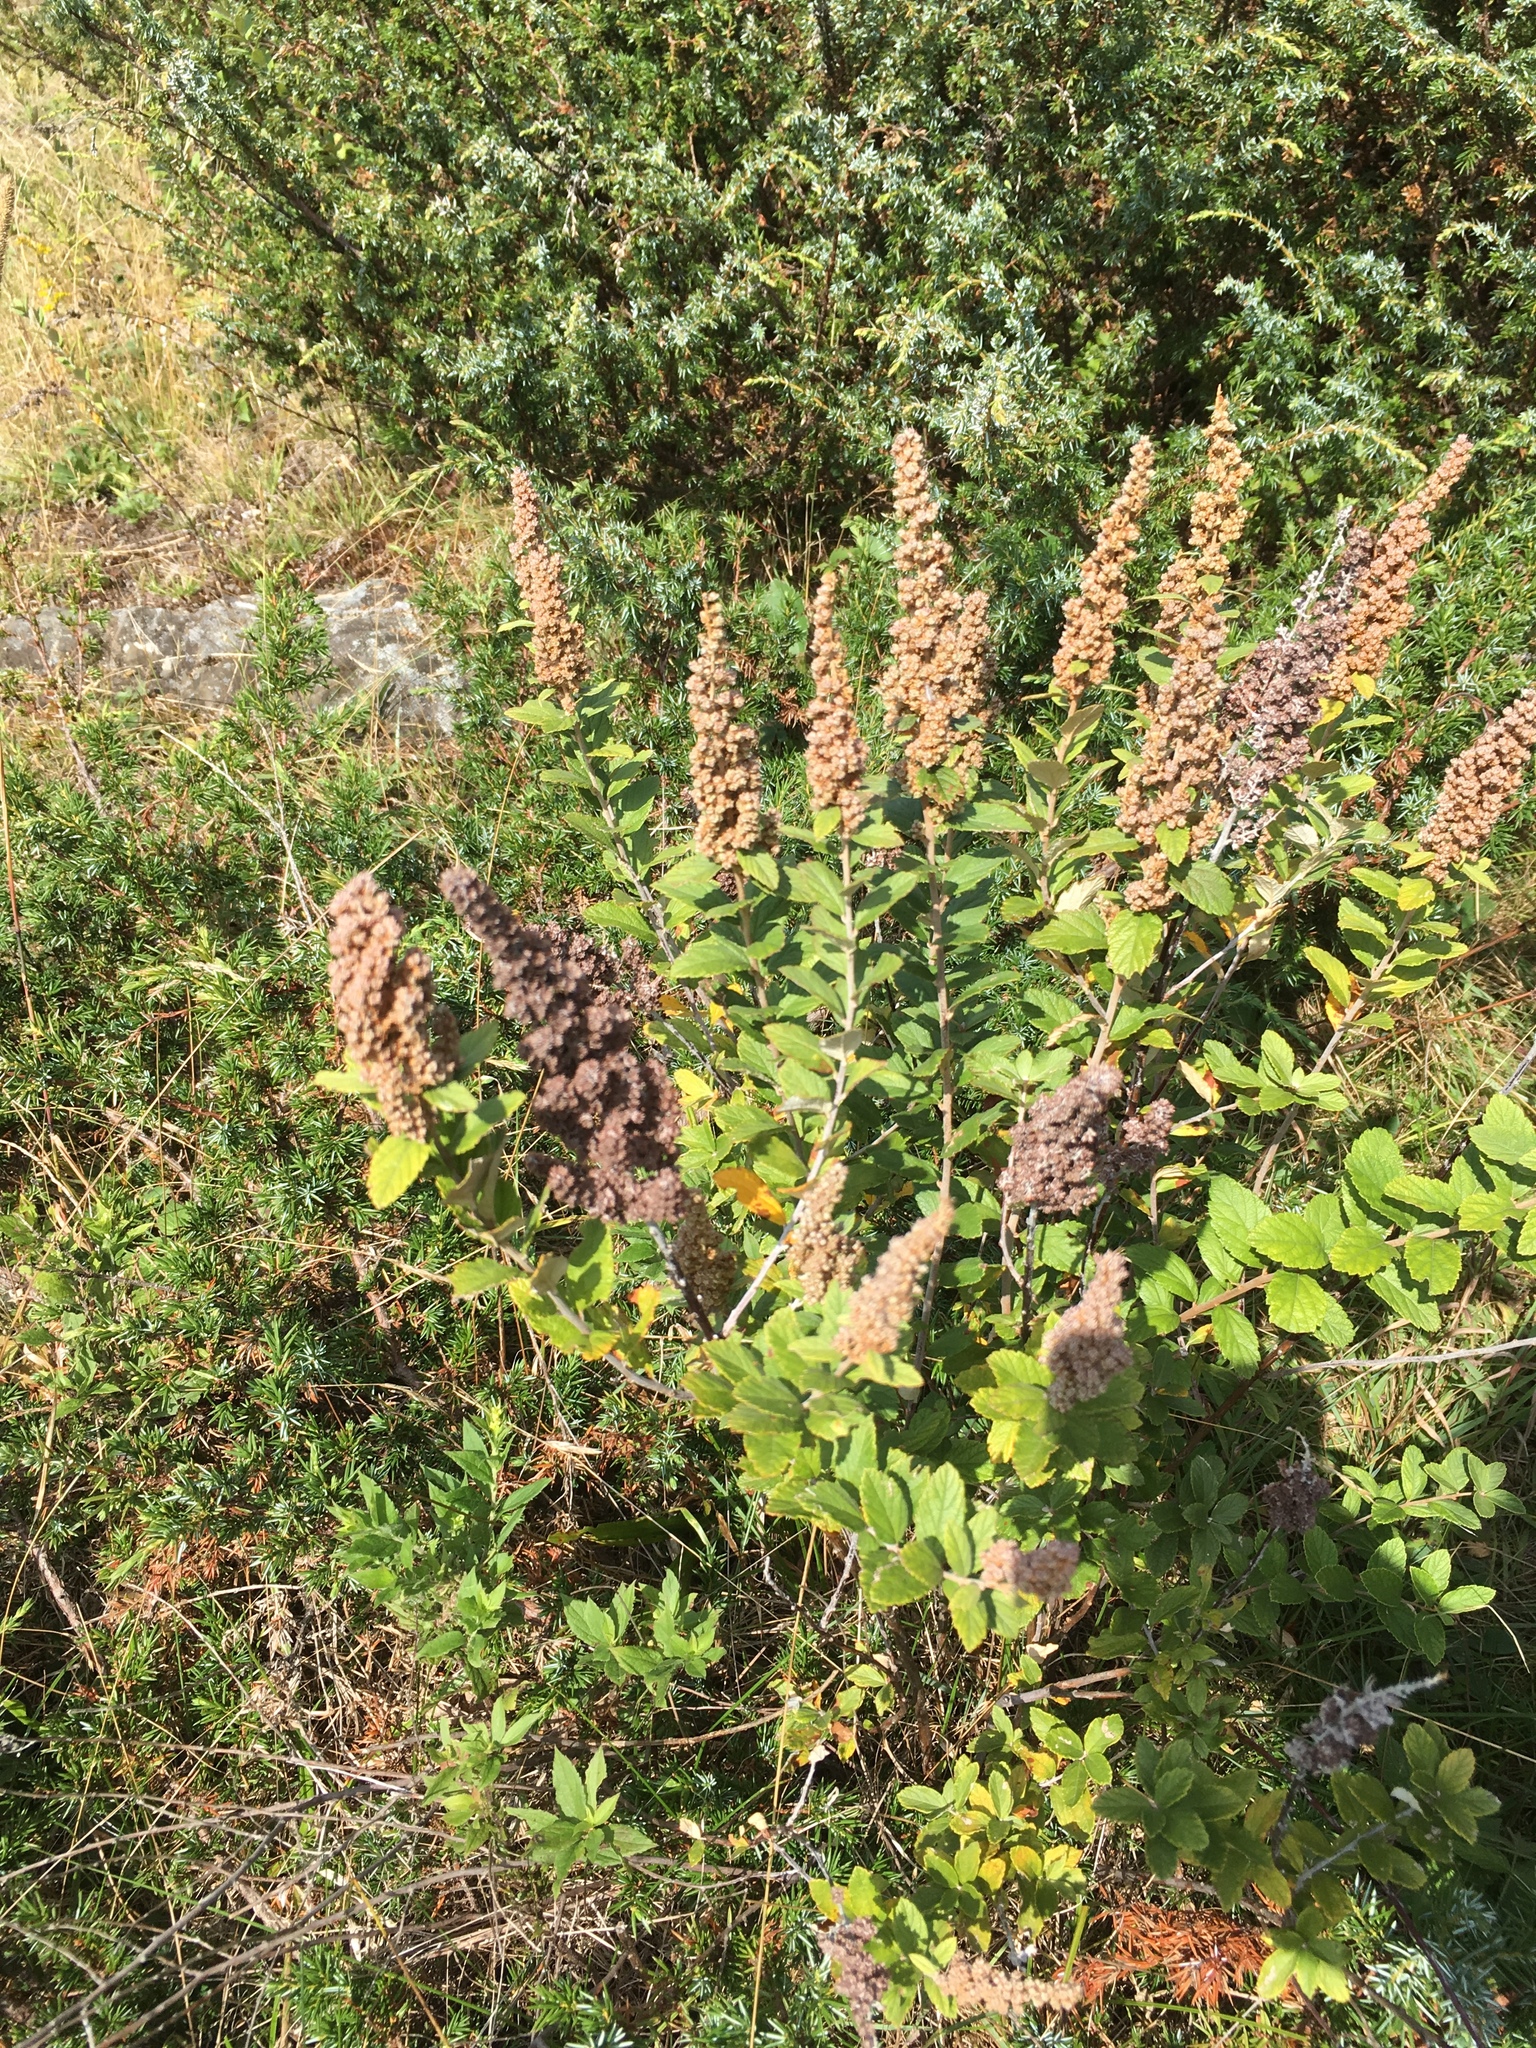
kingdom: Plantae
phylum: Tracheophyta
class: Magnoliopsida
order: Rosales
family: Rosaceae
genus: Spiraea
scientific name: Spiraea tomentosa
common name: Hardhack
